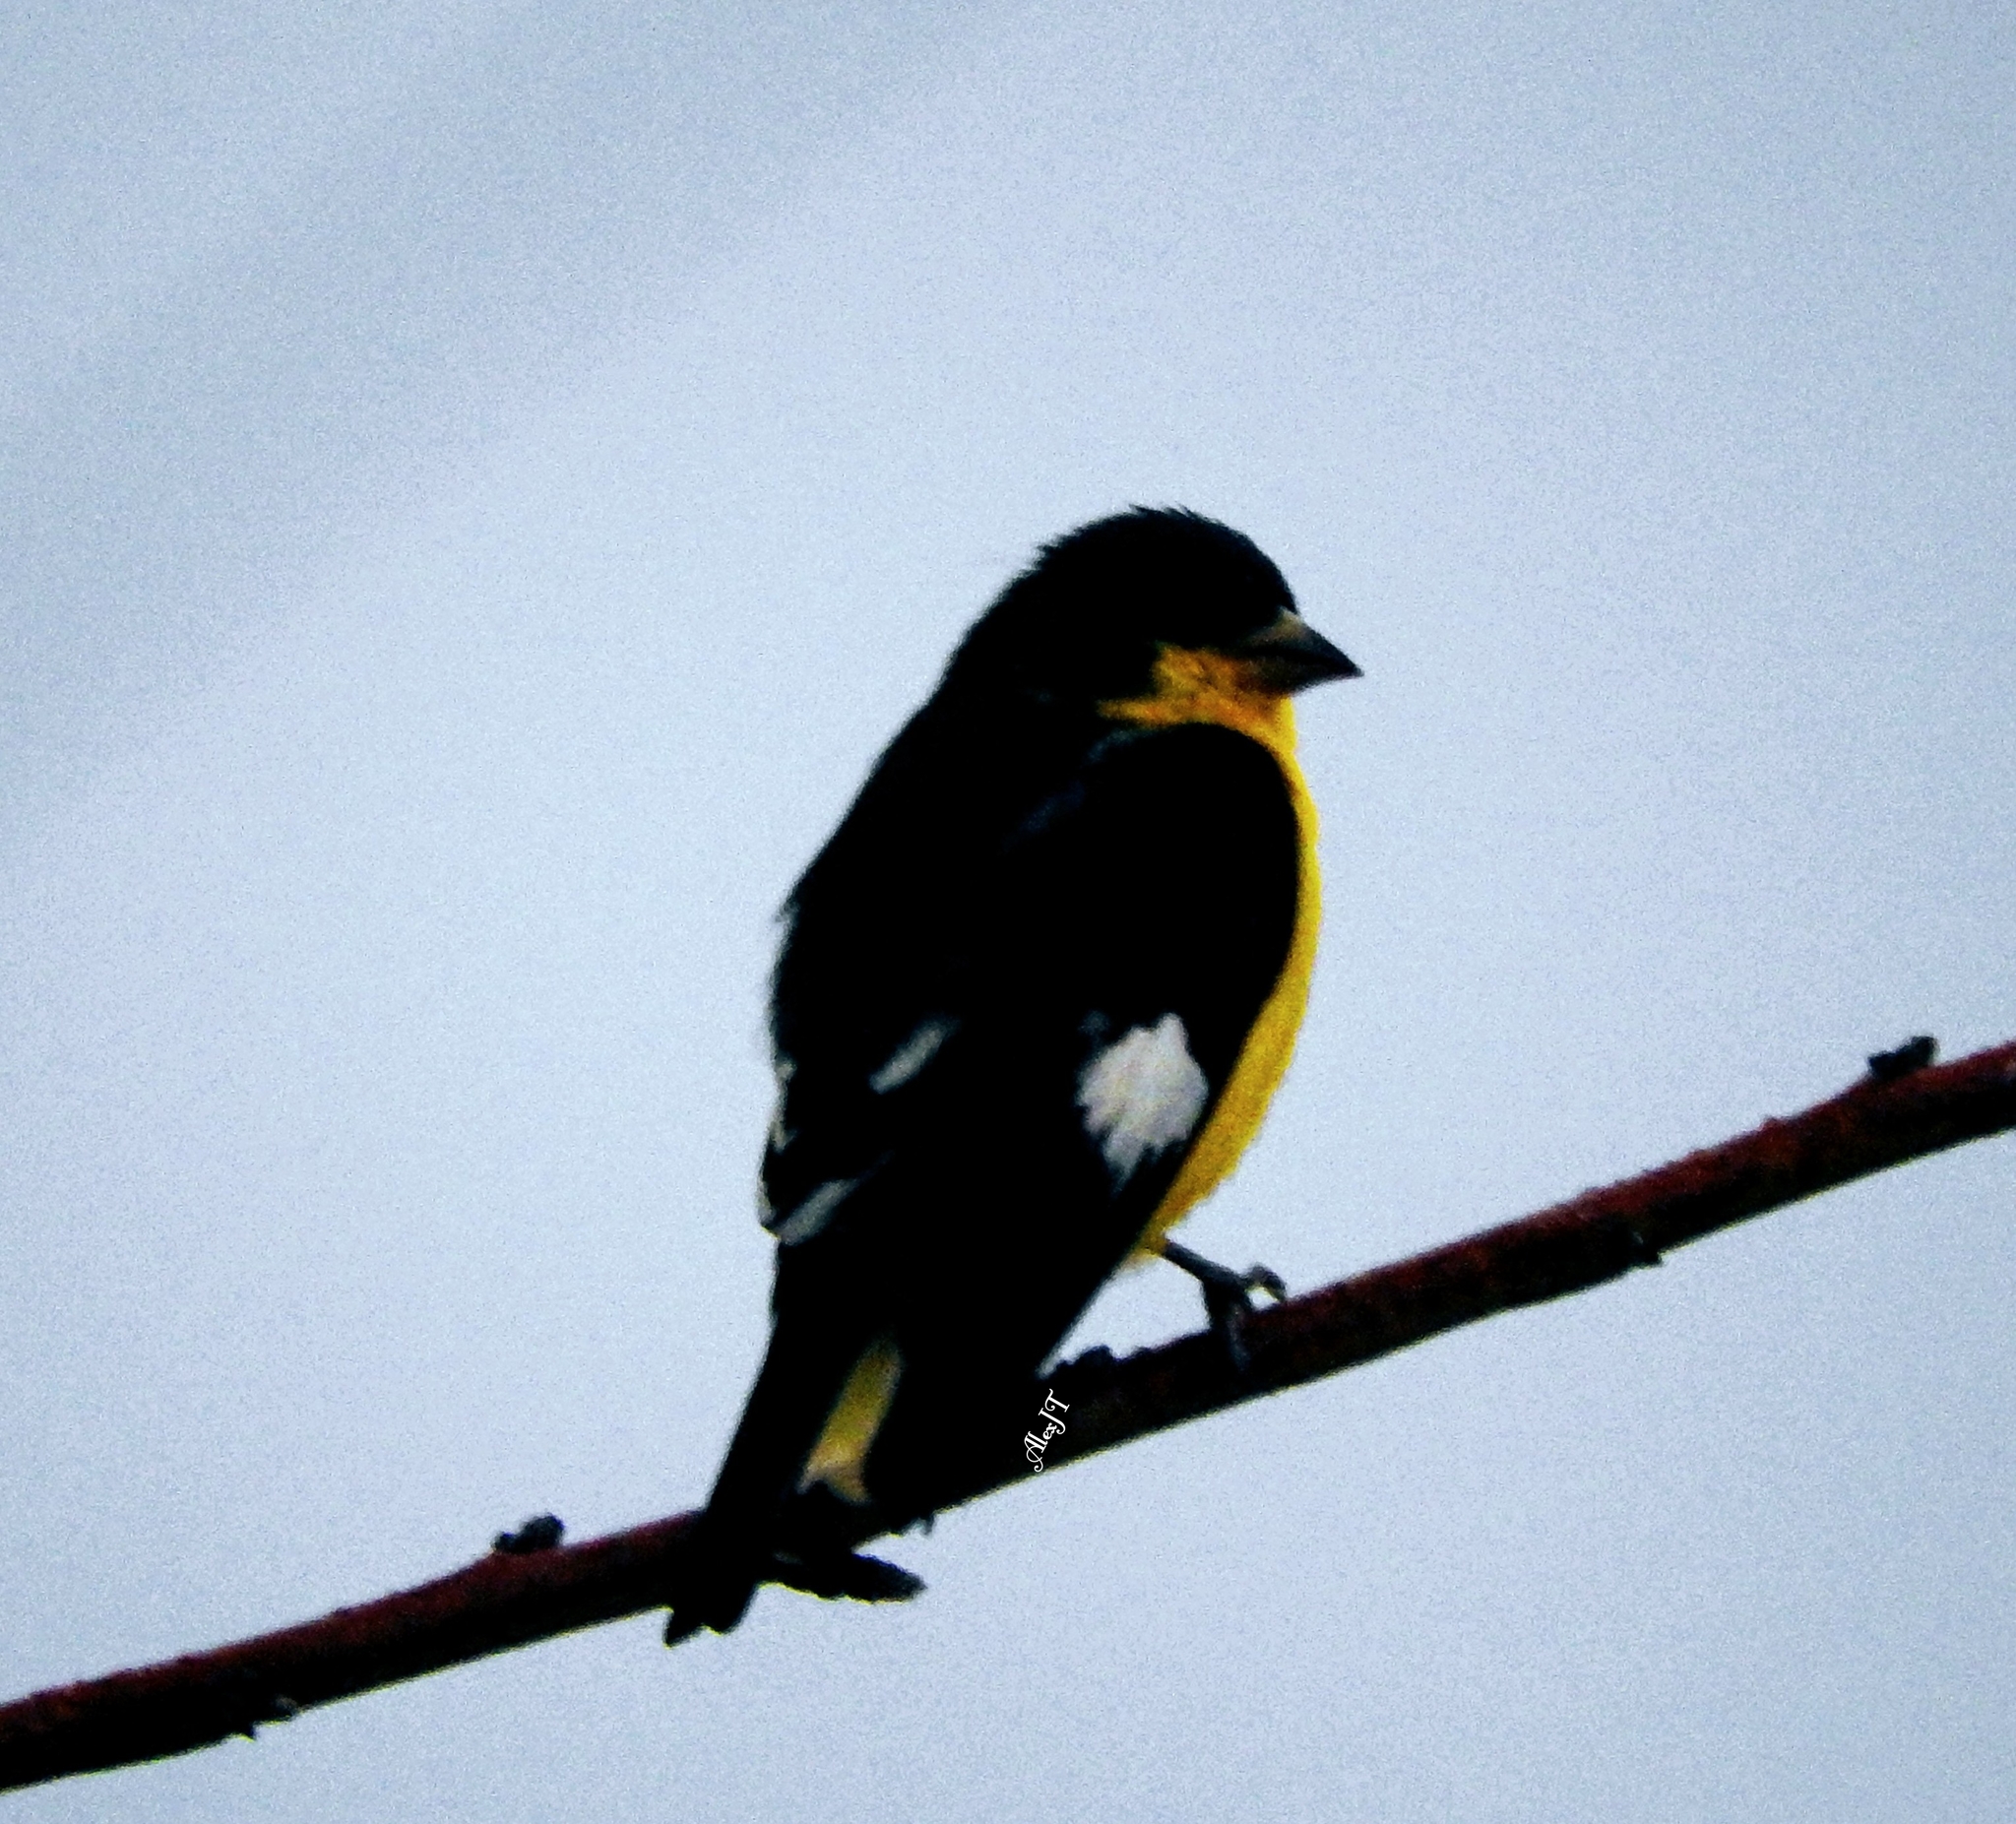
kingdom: Animalia
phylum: Chordata
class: Aves
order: Passeriformes
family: Fringillidae
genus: Spinus
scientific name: Spinus psaltria
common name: Lesser goldfinch
